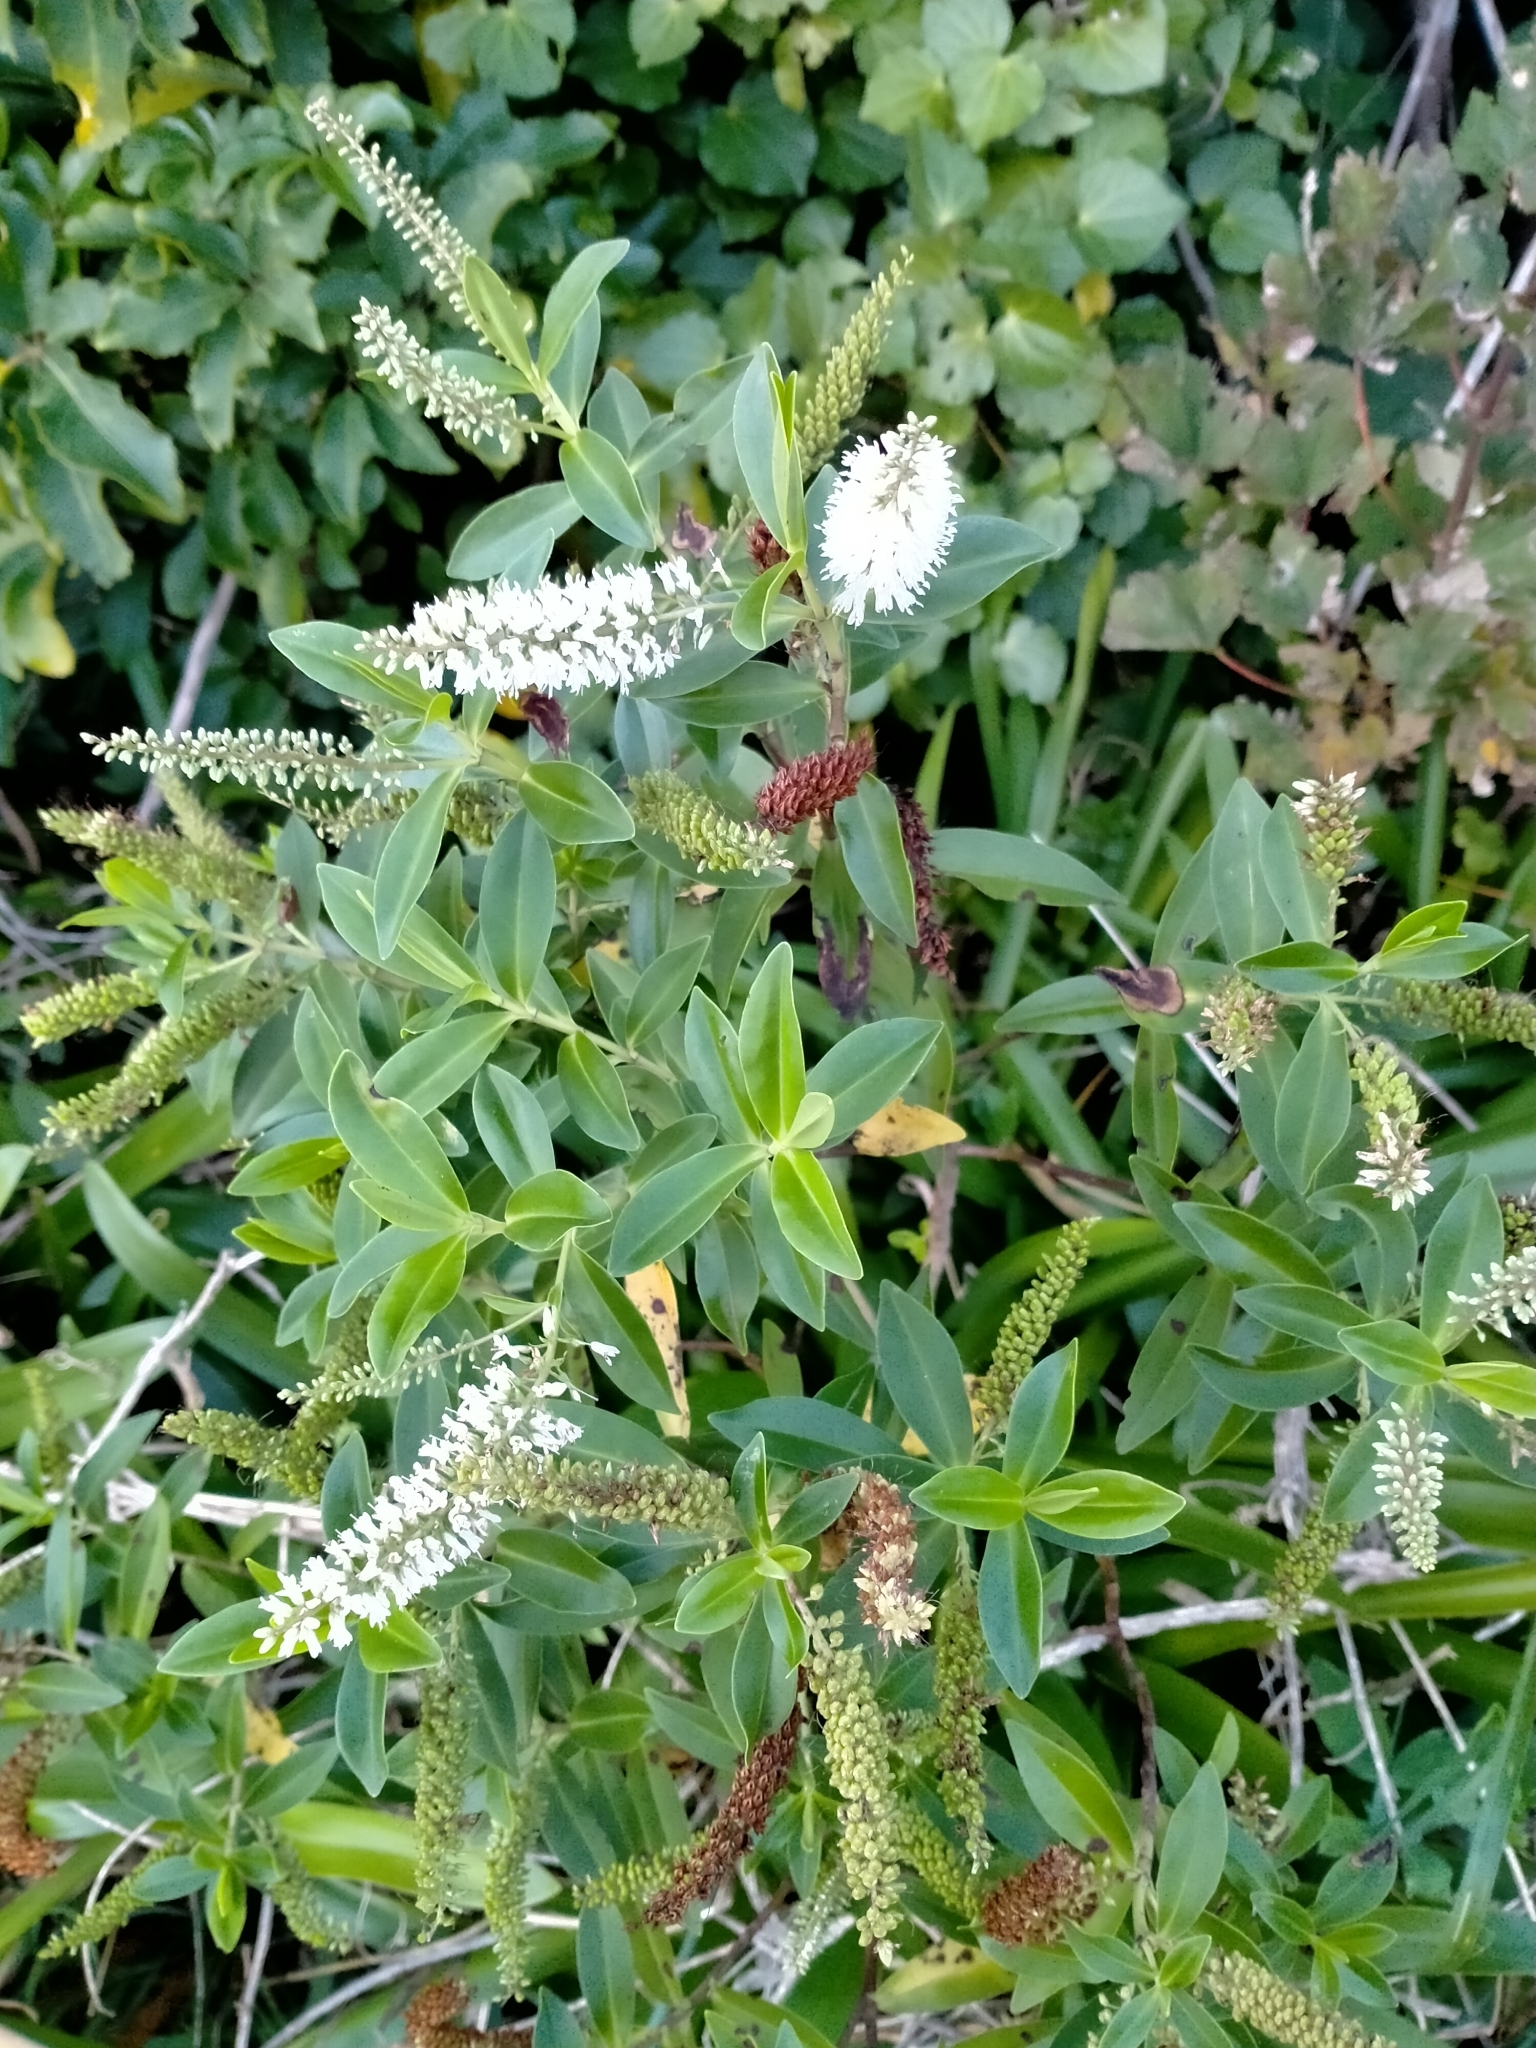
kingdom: Plantae
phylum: Tracheophyta
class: Magnoliopsida
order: Lamiales
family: Plantaginaceae
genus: Veronica
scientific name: Veronica stricta
